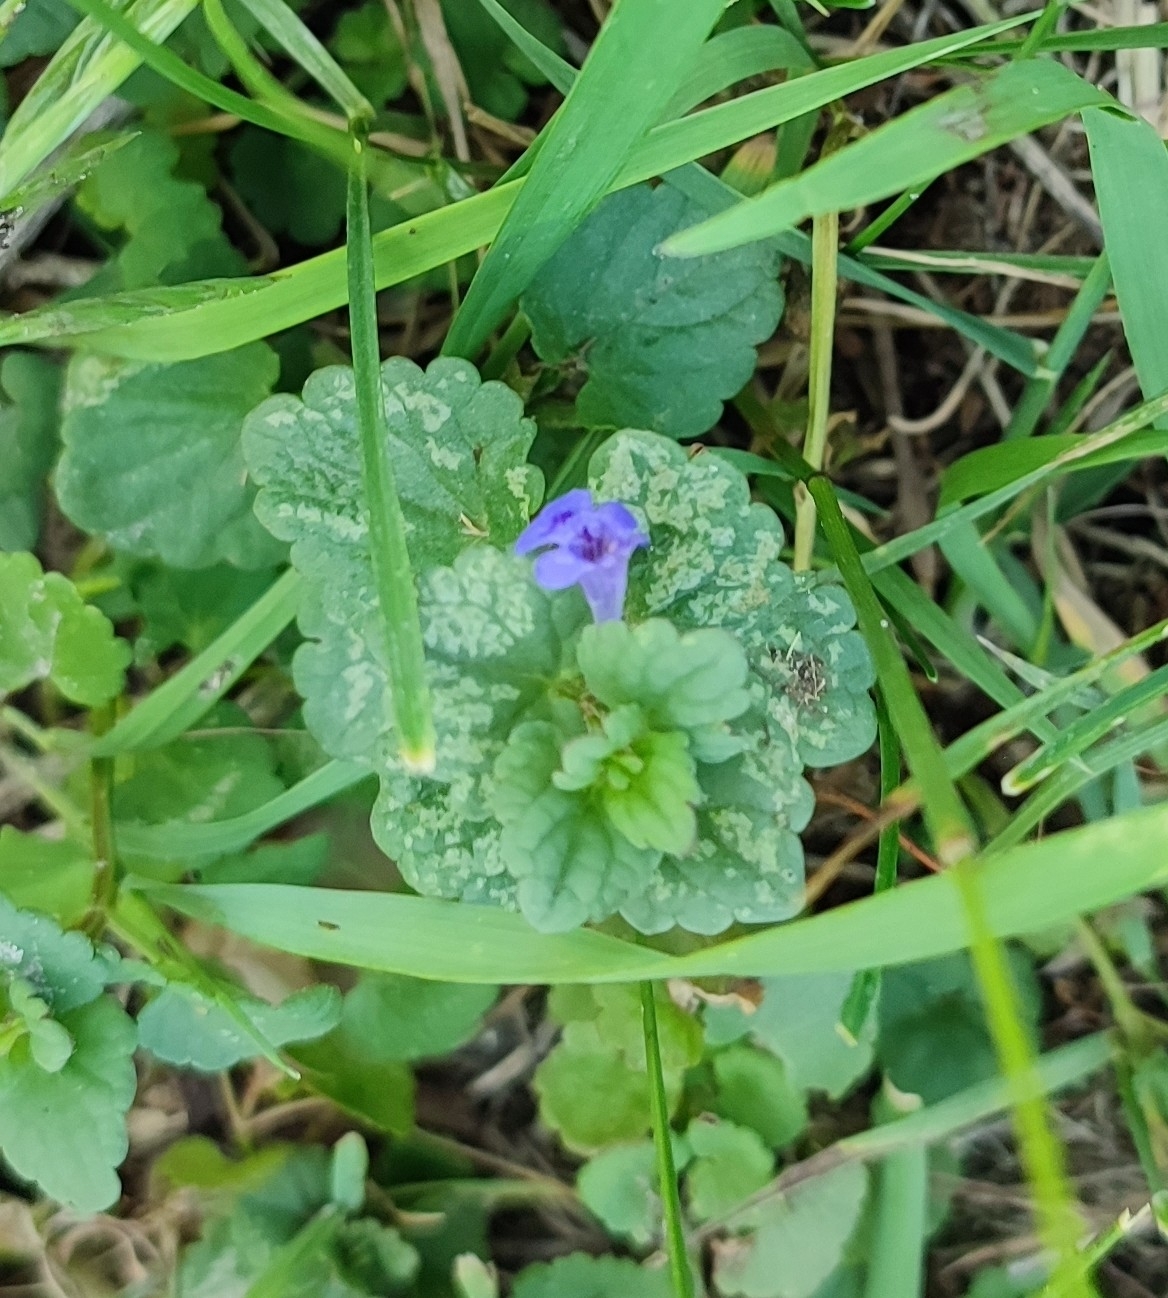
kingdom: Plantae
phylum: Tracheophyta
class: Magnoliopsida
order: Lamiales
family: Lamiaceae
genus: Glechoma
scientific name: Glechoma hederacea
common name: Ground ivy
